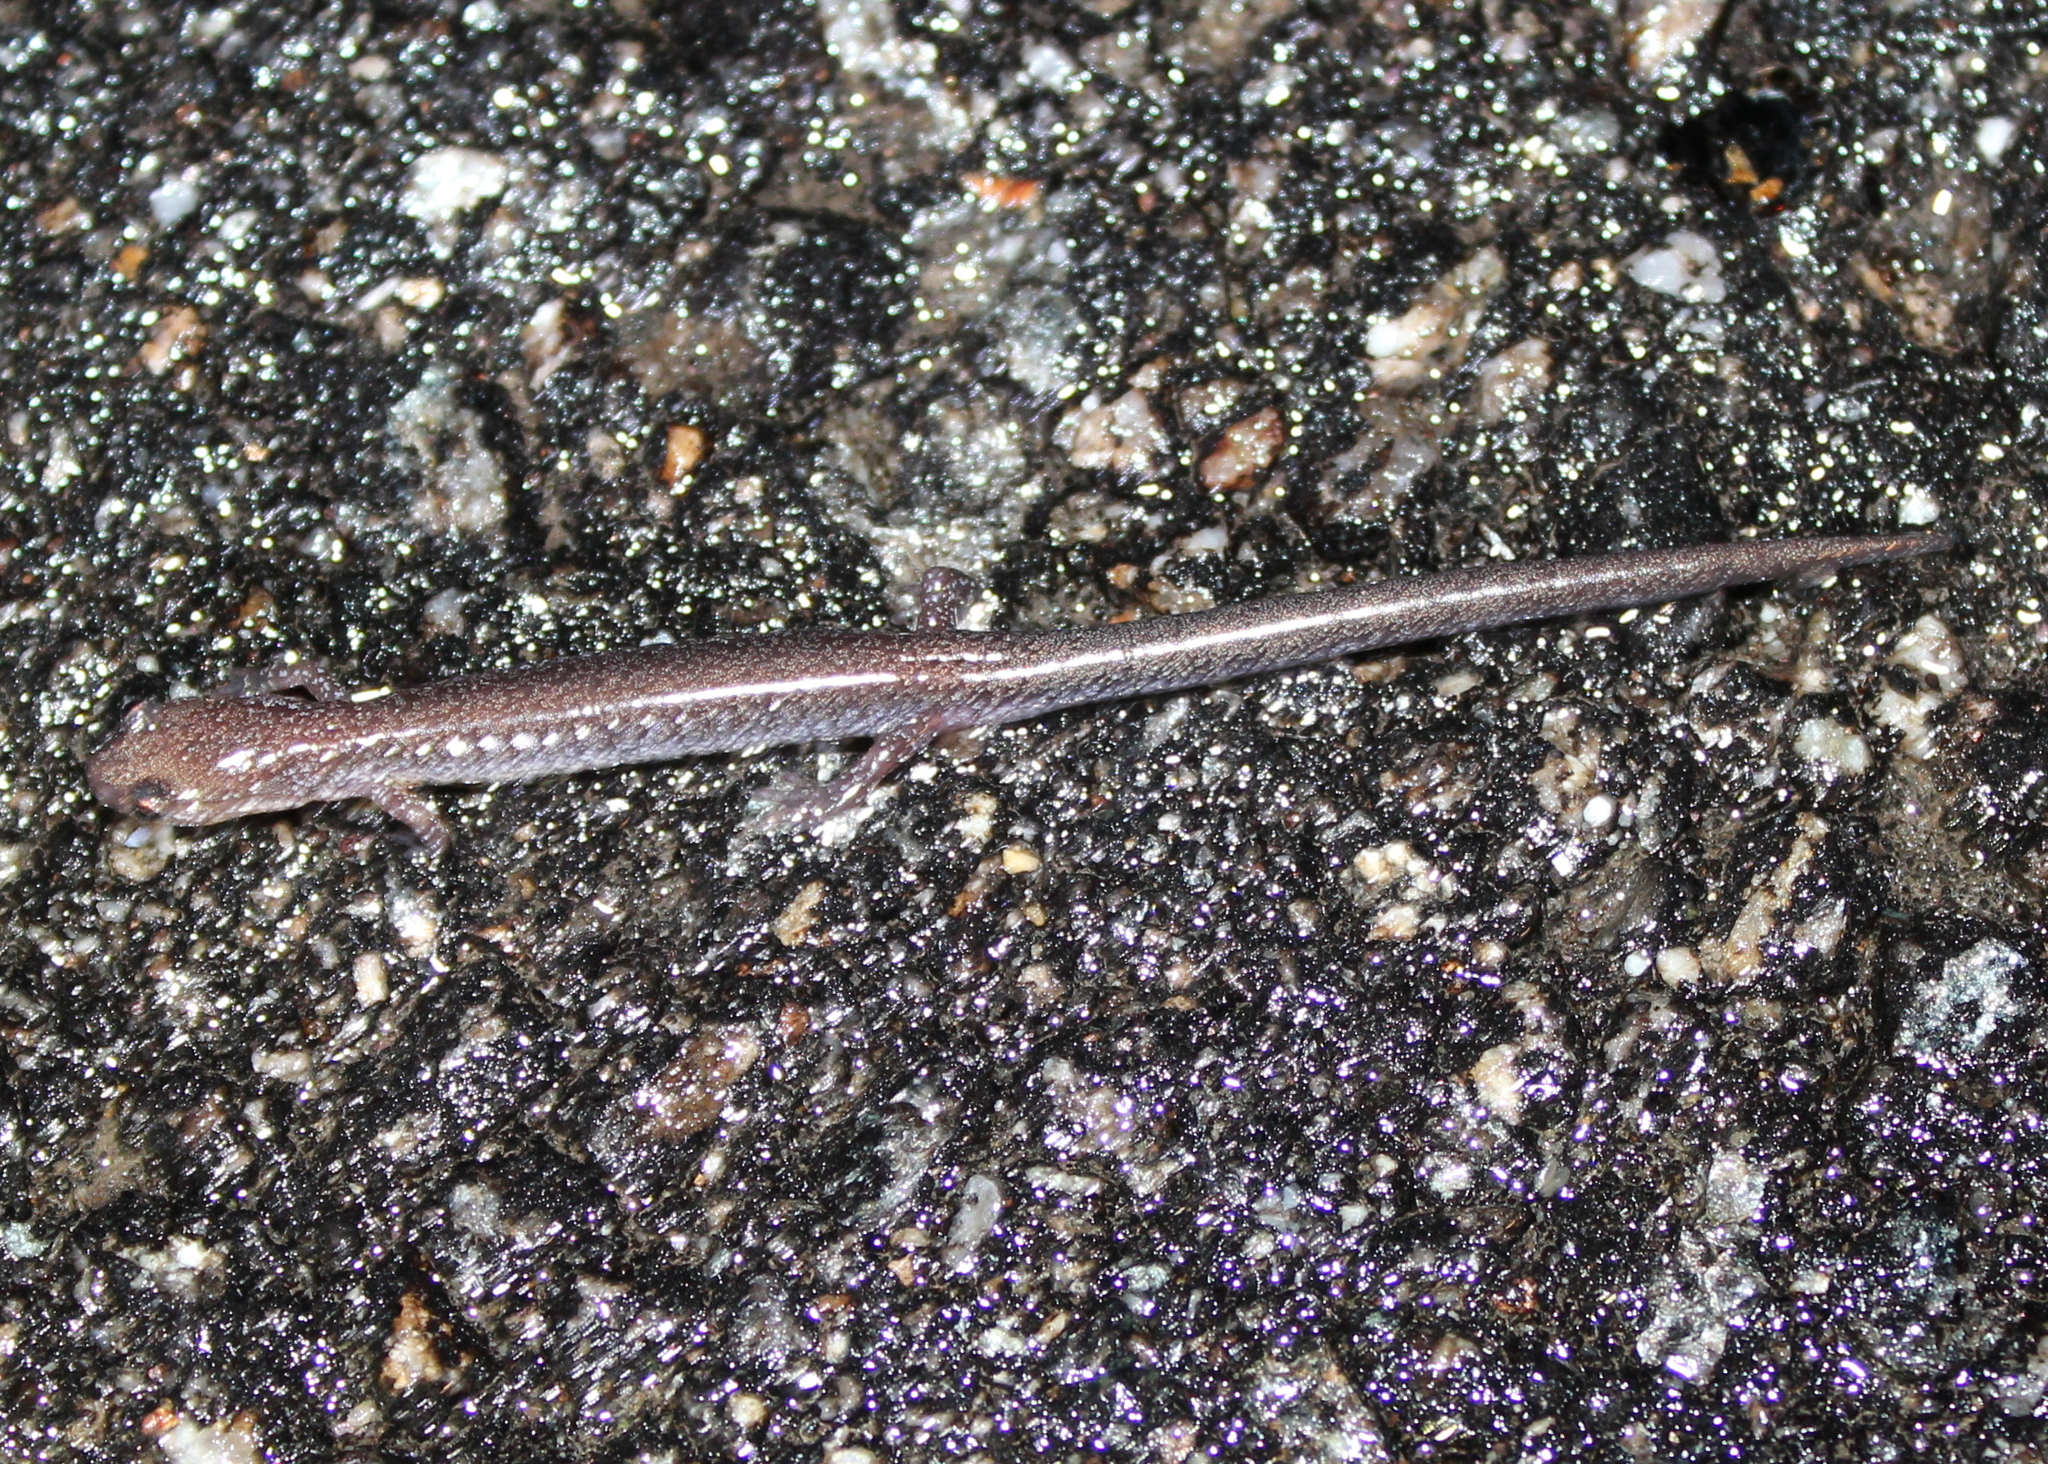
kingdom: Animalia
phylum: Chordata
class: Amphibia
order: Caudata
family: Plethodontidae
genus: Plethodon
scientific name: Plethodon cinereus
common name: Redback salamander
